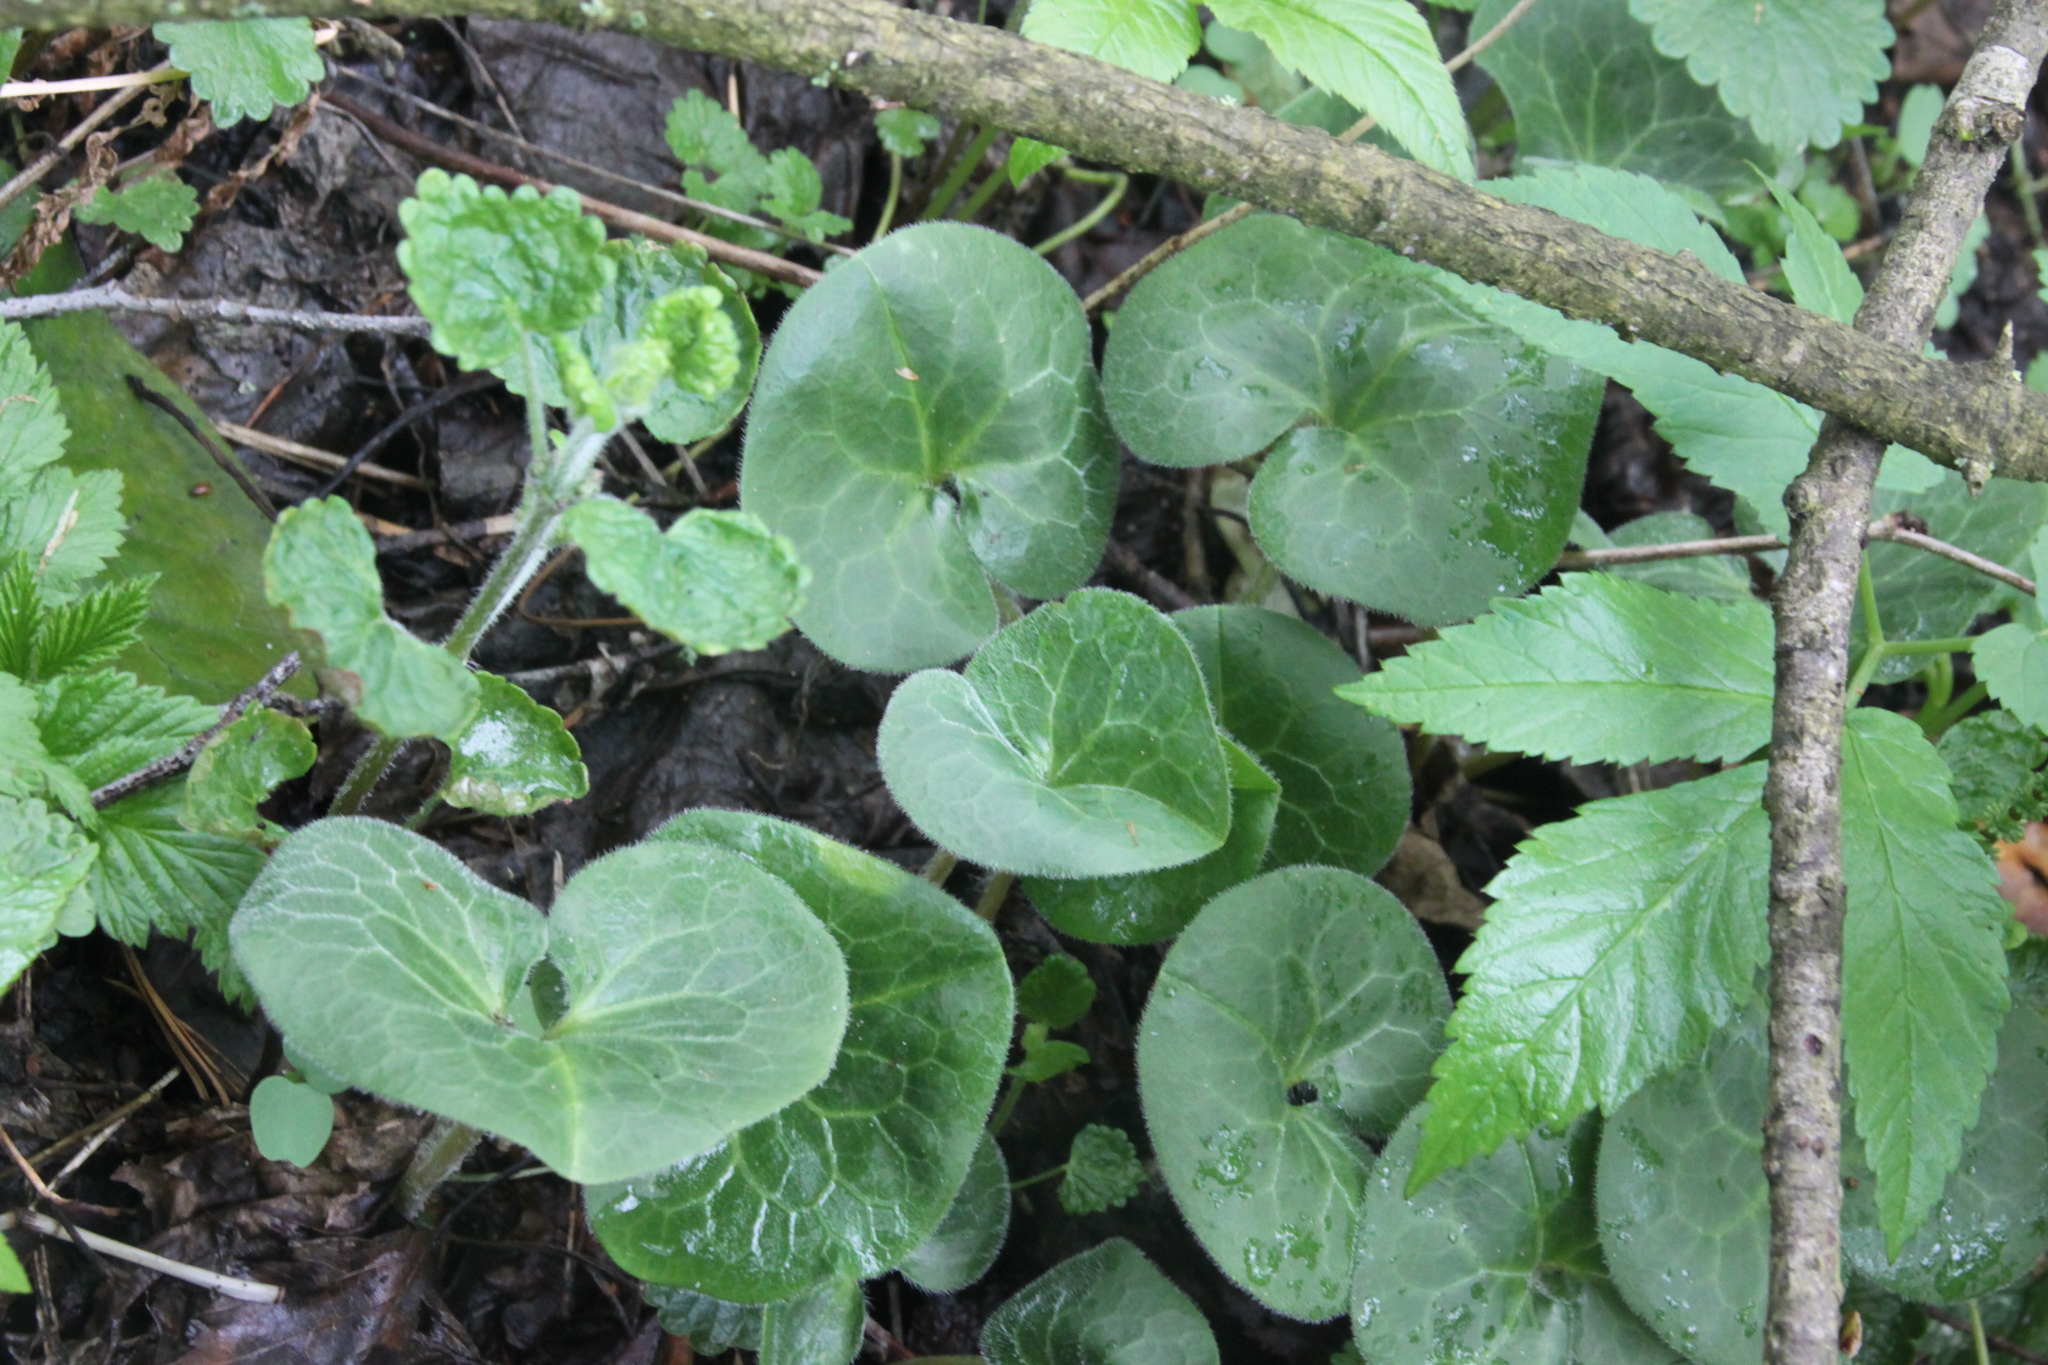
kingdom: Plantae
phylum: Tracheophyta
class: Magnoliopsida
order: Piperales
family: Aristolochiaceae
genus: Asarum
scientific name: Asarum europaeum
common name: Asarabacca
